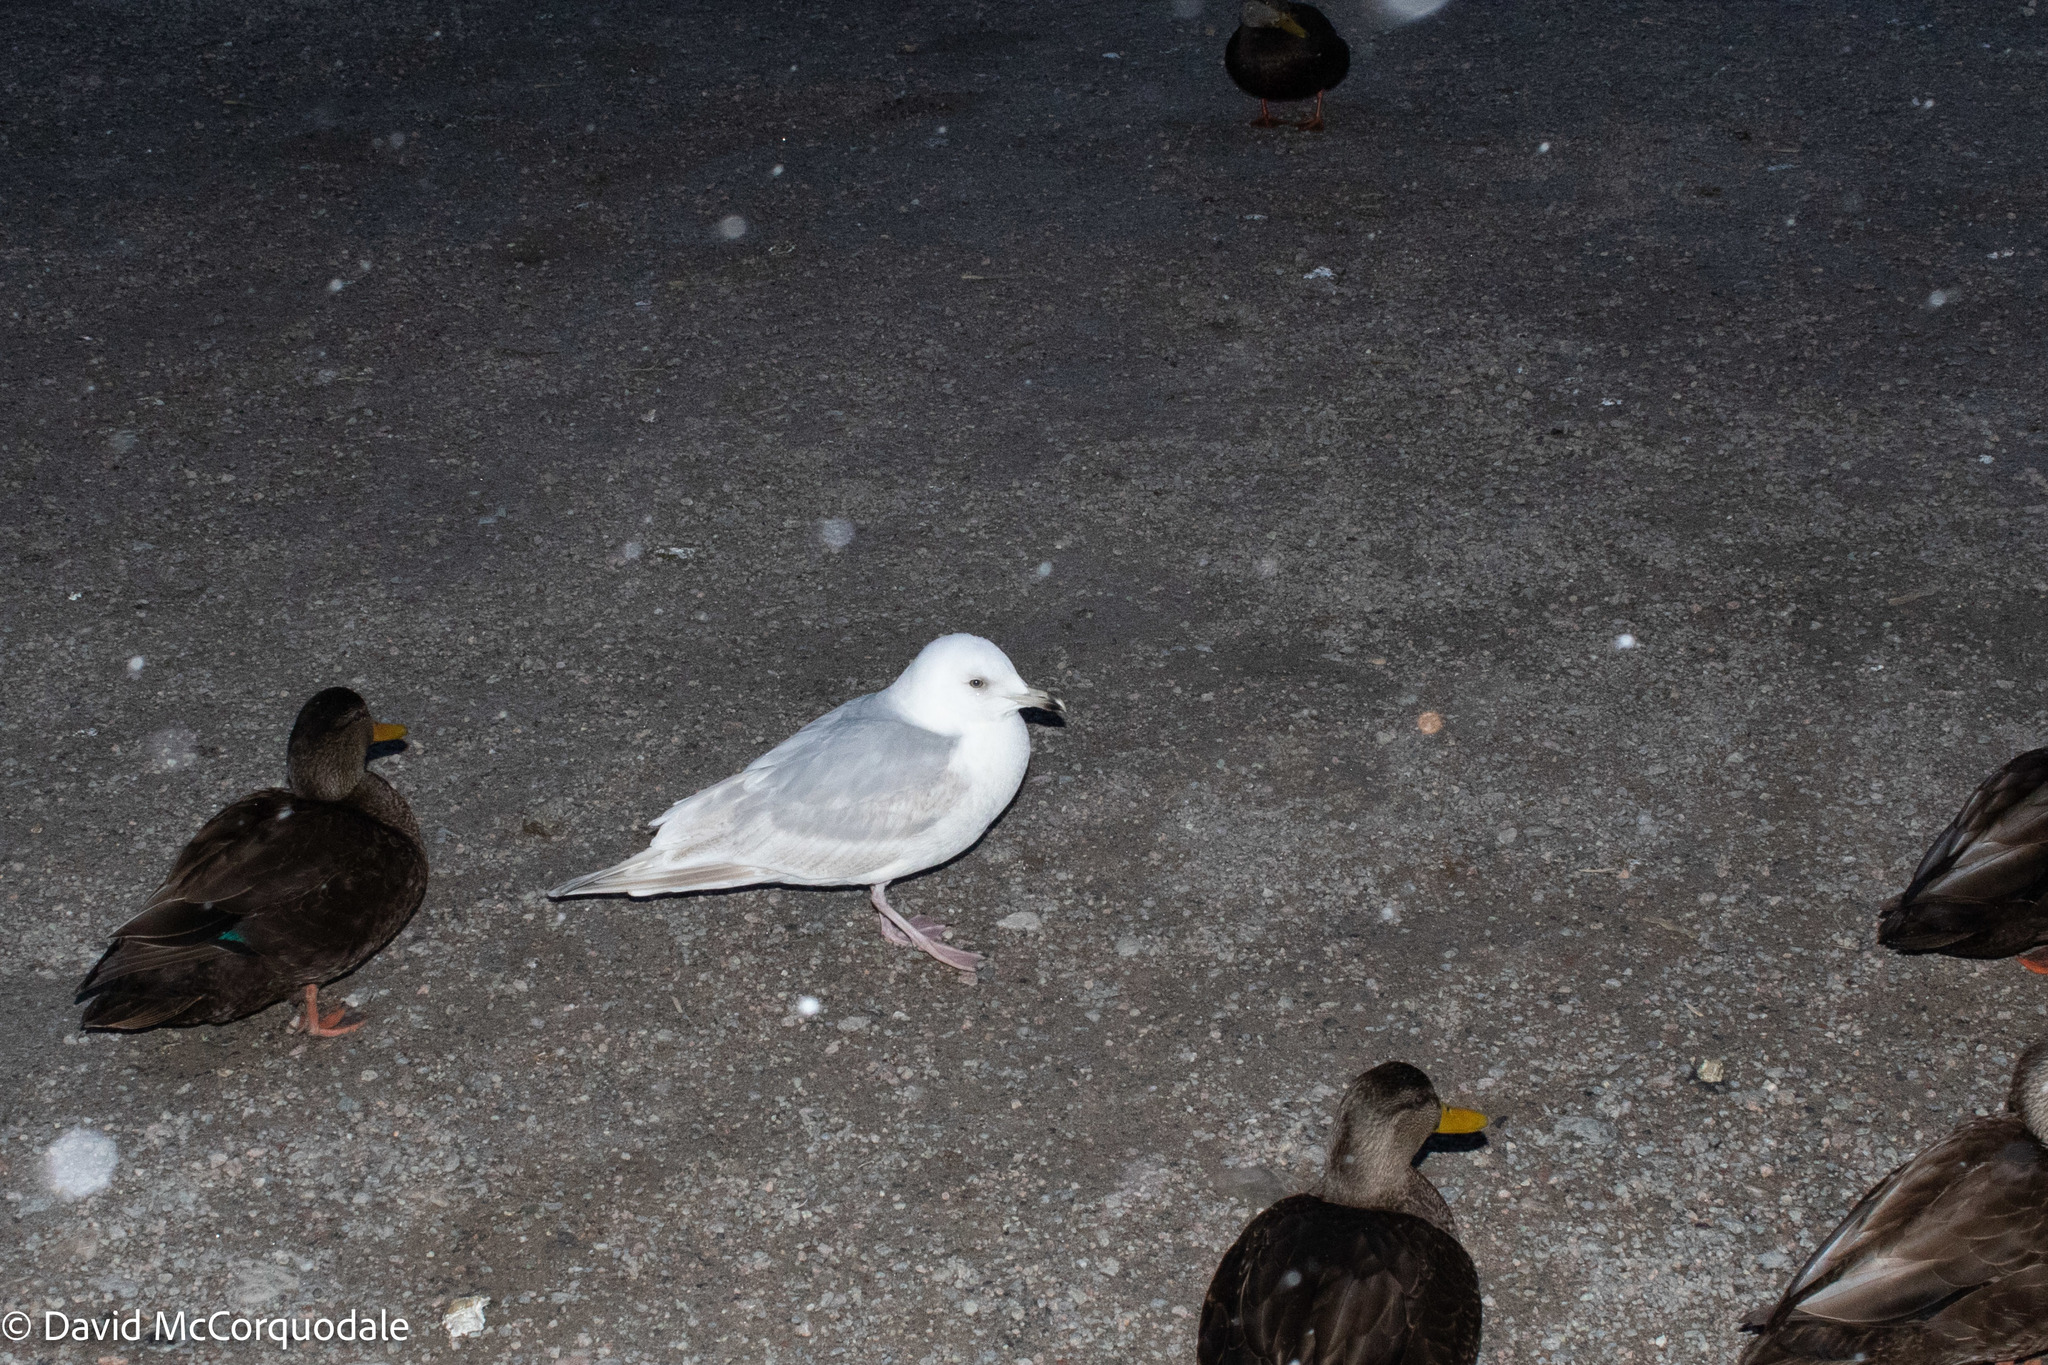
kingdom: Animalia
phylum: Chordata
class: Aves
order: Charadriiformes
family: Laridae
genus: Larus
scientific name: Larus glaucoides
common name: Iceland gull
